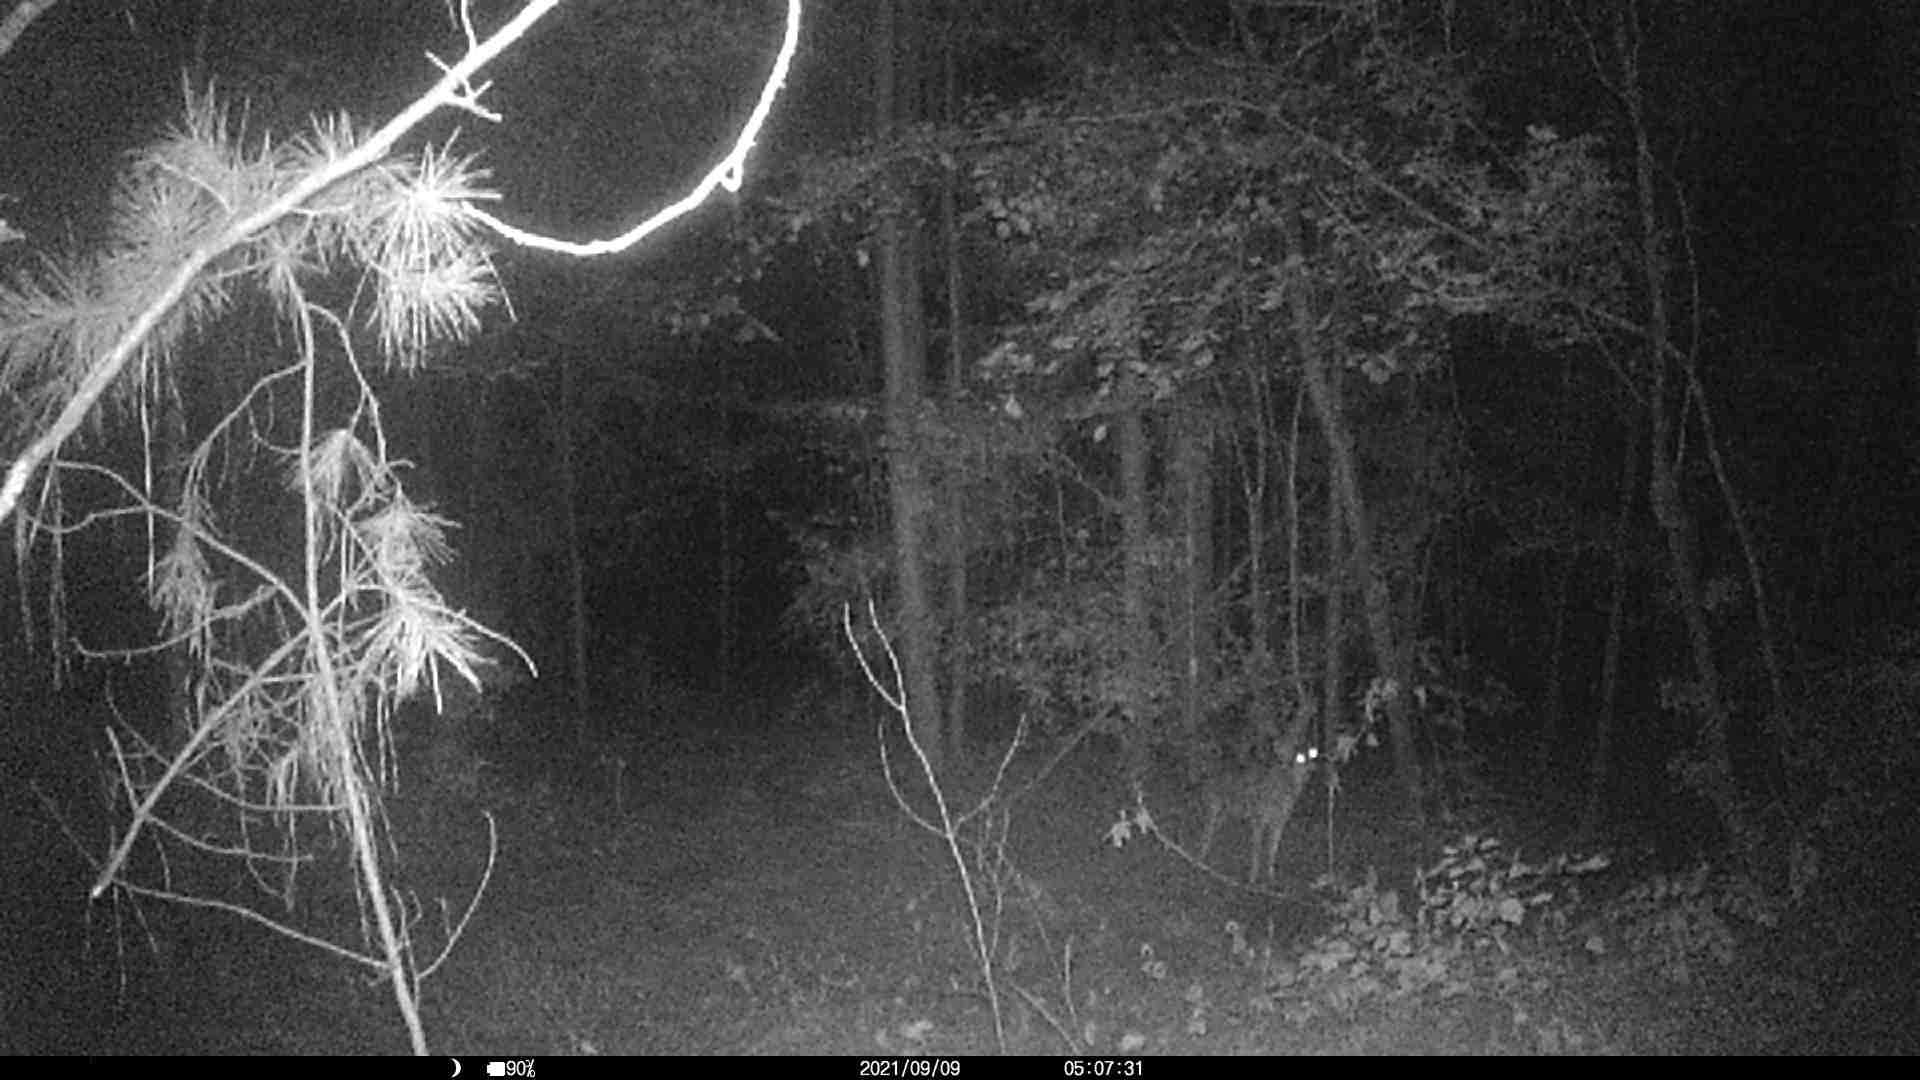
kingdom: Animalia
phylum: Chordata
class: Mammalia
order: Carnivora
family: Canidae
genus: Canis
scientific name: Canis latrans
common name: Coyote
